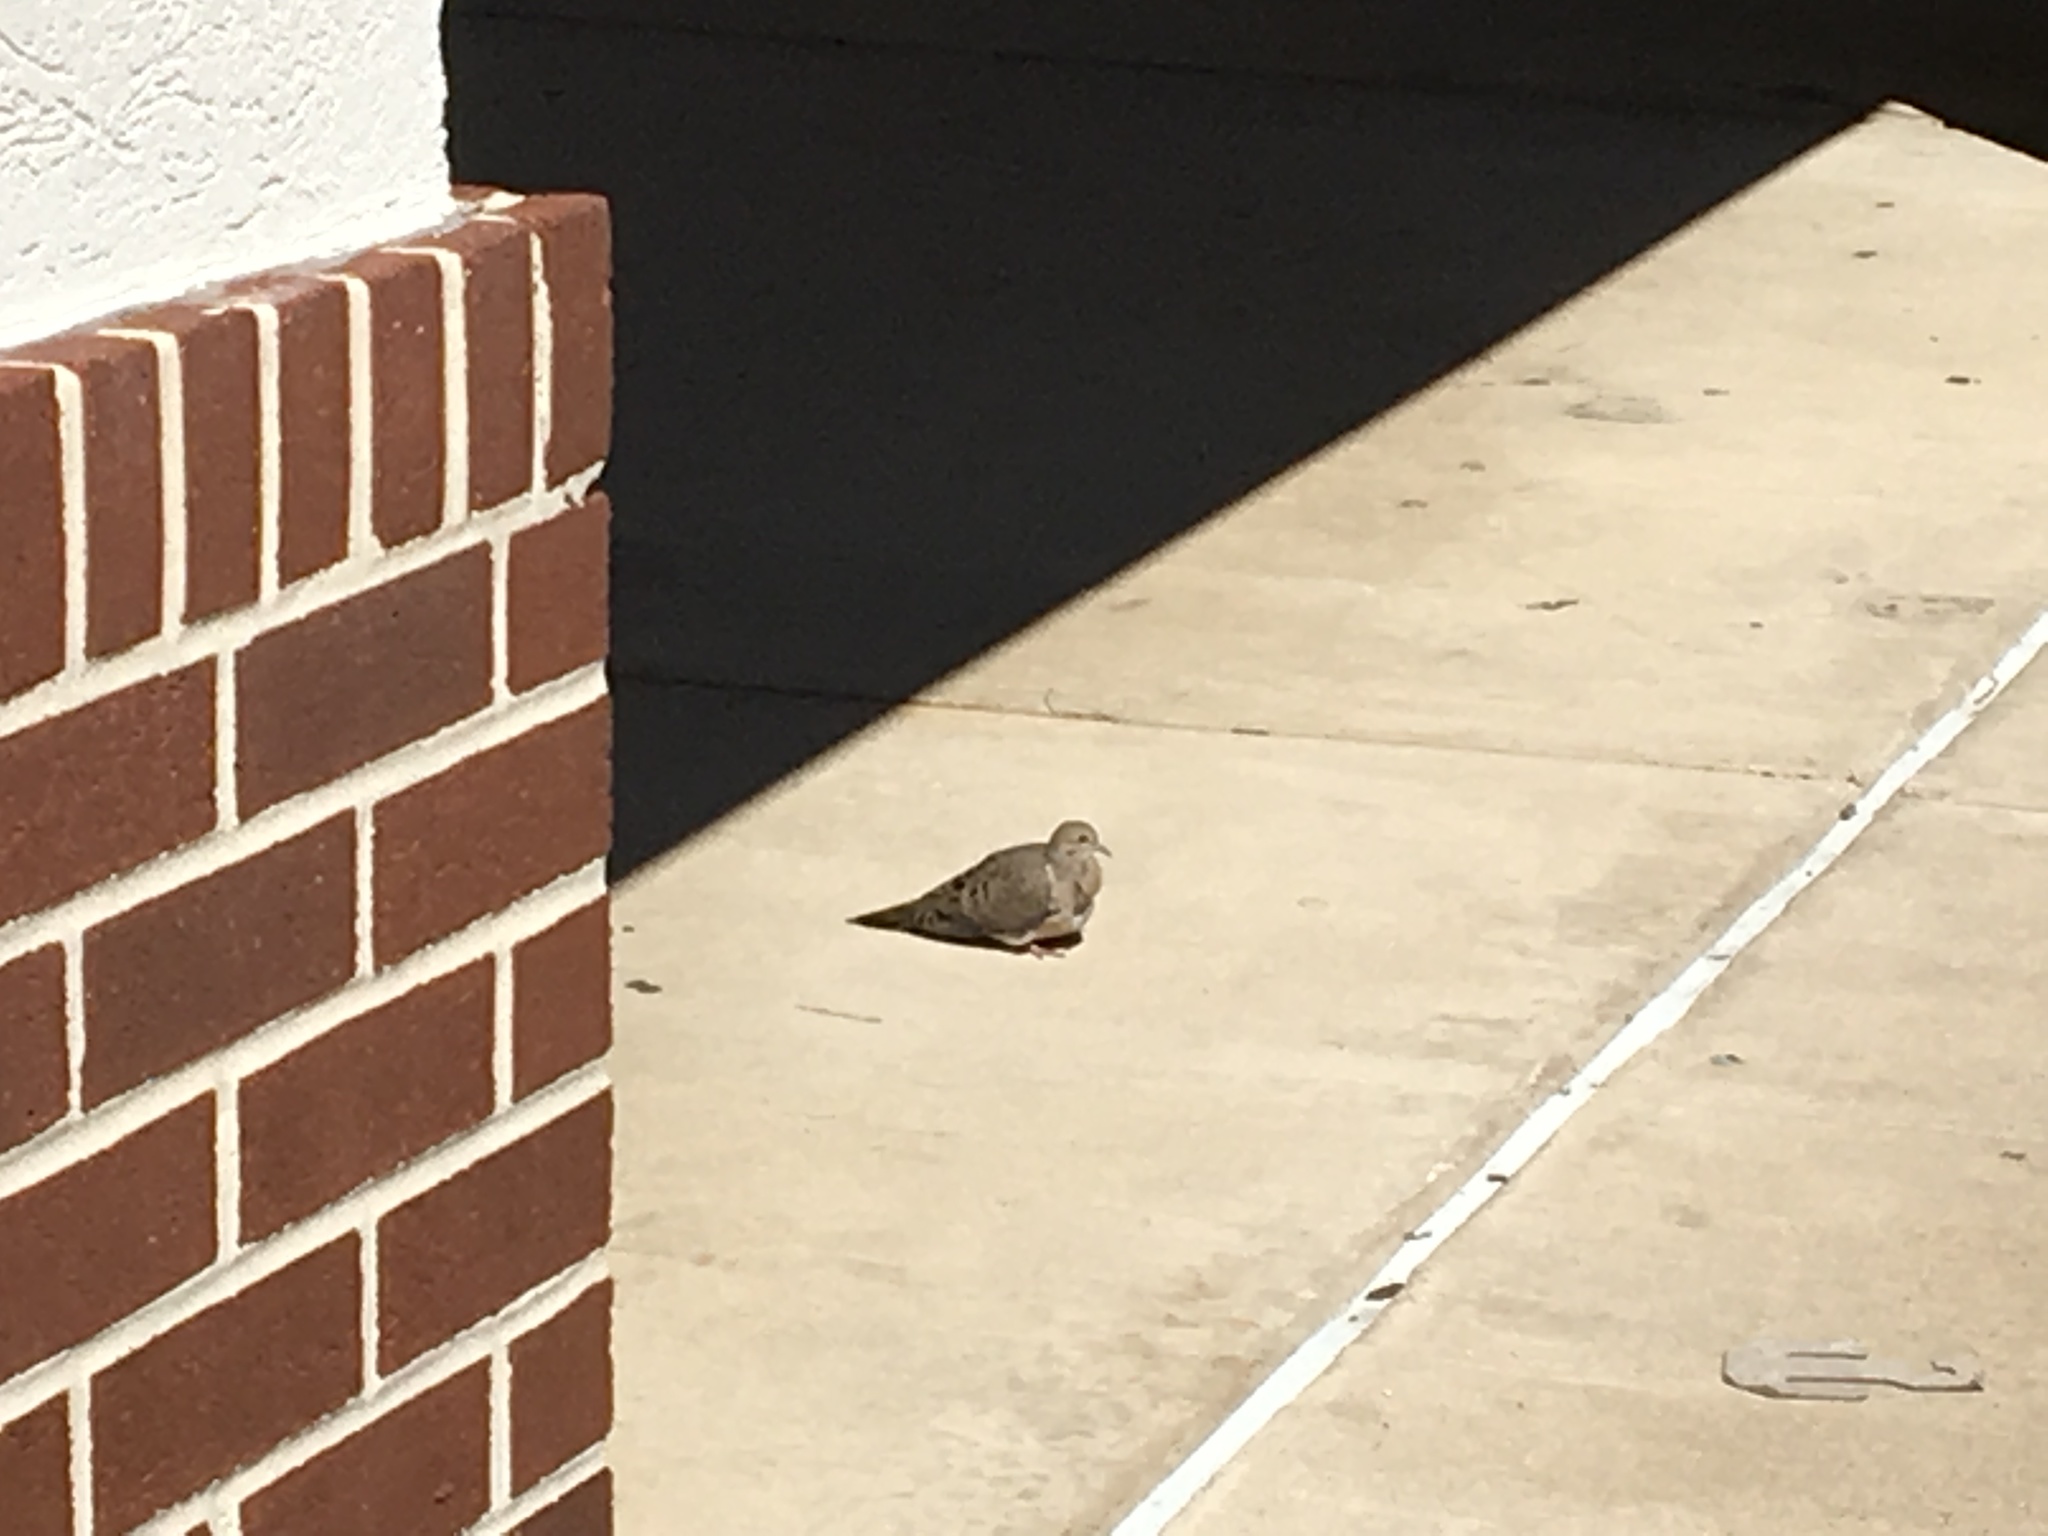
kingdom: Animalia
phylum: Chordata
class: Aves
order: Columbiformes
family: Columbidae
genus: Zenaida
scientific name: Zenaida macroura
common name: Mourning dove
